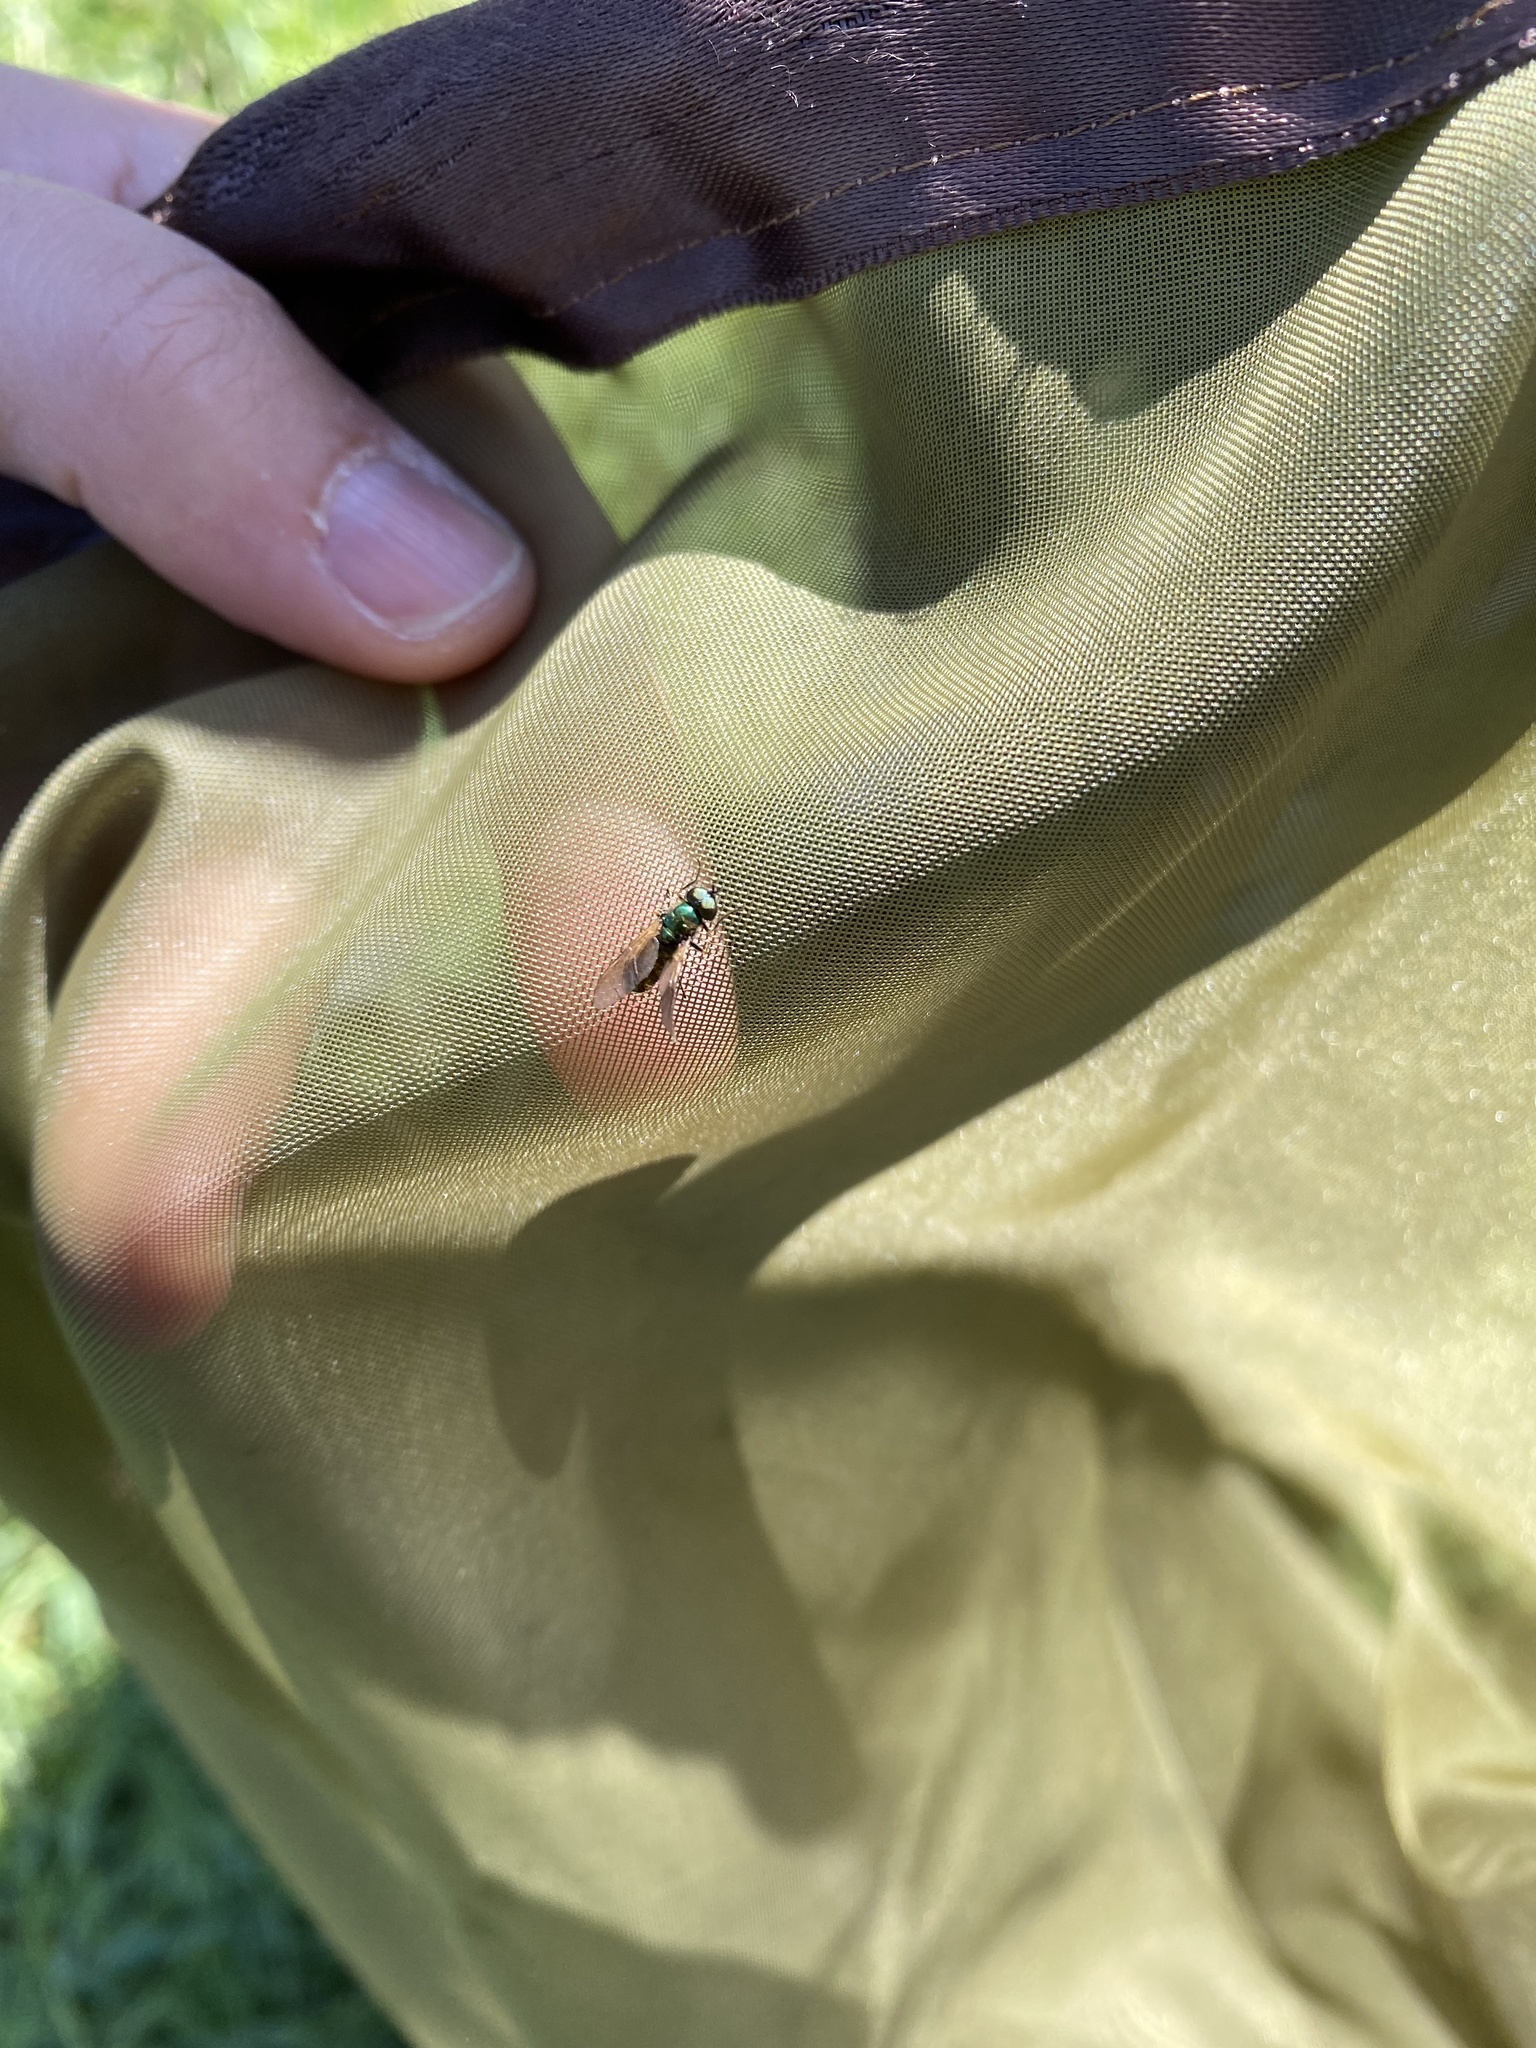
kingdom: Animalia
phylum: Arthropoda
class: Insecta
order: Diptera
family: Stratiomyidae
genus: Chloromyia
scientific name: Chloromyia formosa
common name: Soldier fly
